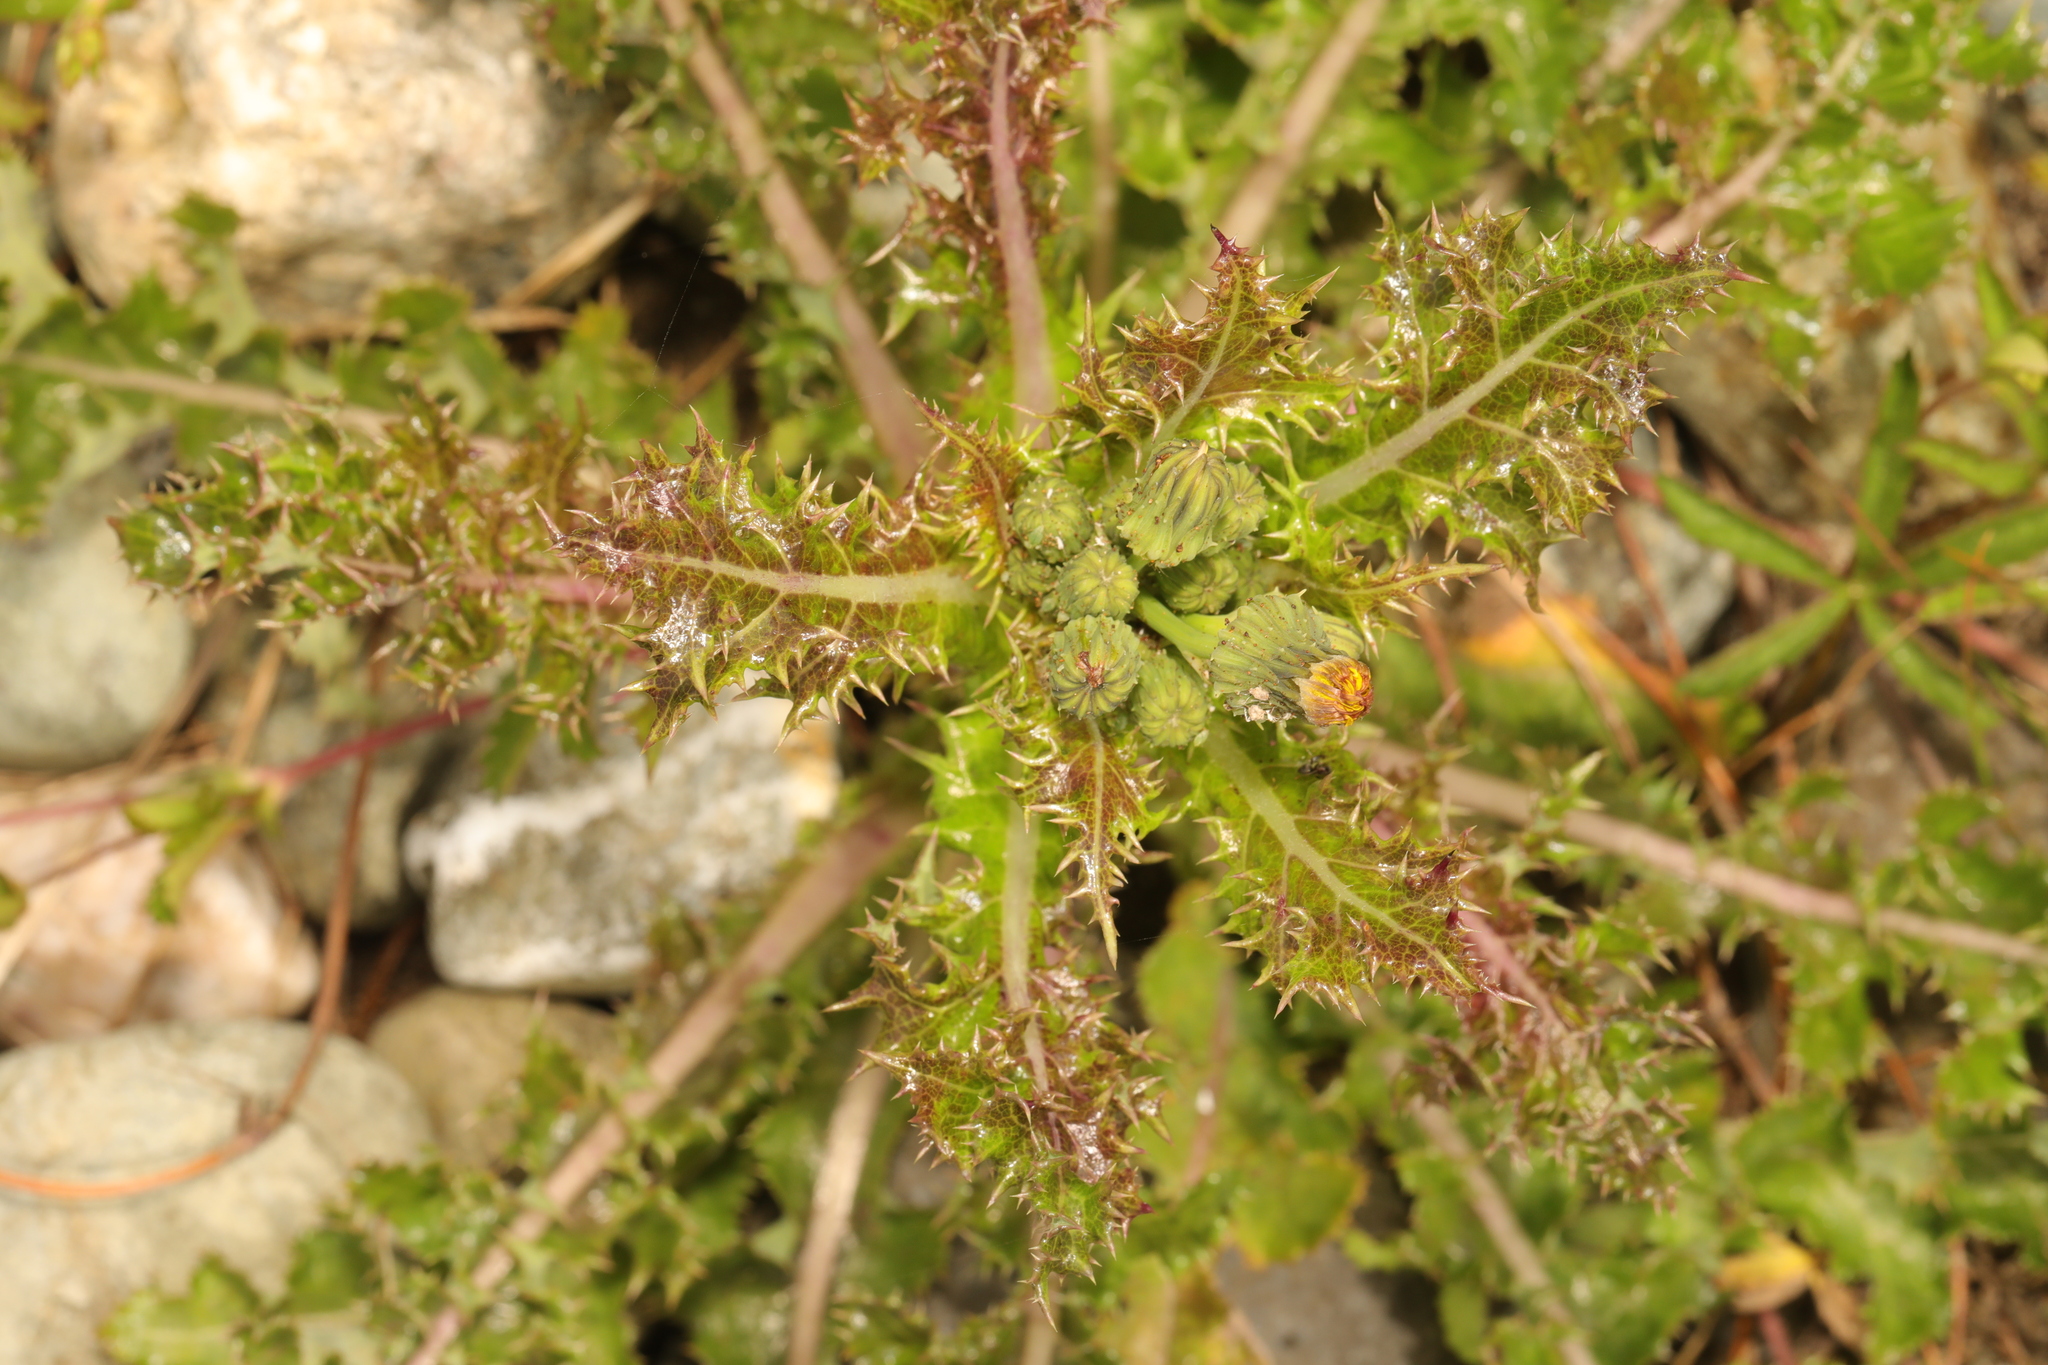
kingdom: Plantae
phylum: Tracheophyta
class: Magnoliopsida
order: Asterales
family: Asteraceae
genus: Sonchus
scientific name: Sonchus asper
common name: Prickly sow-thistle
